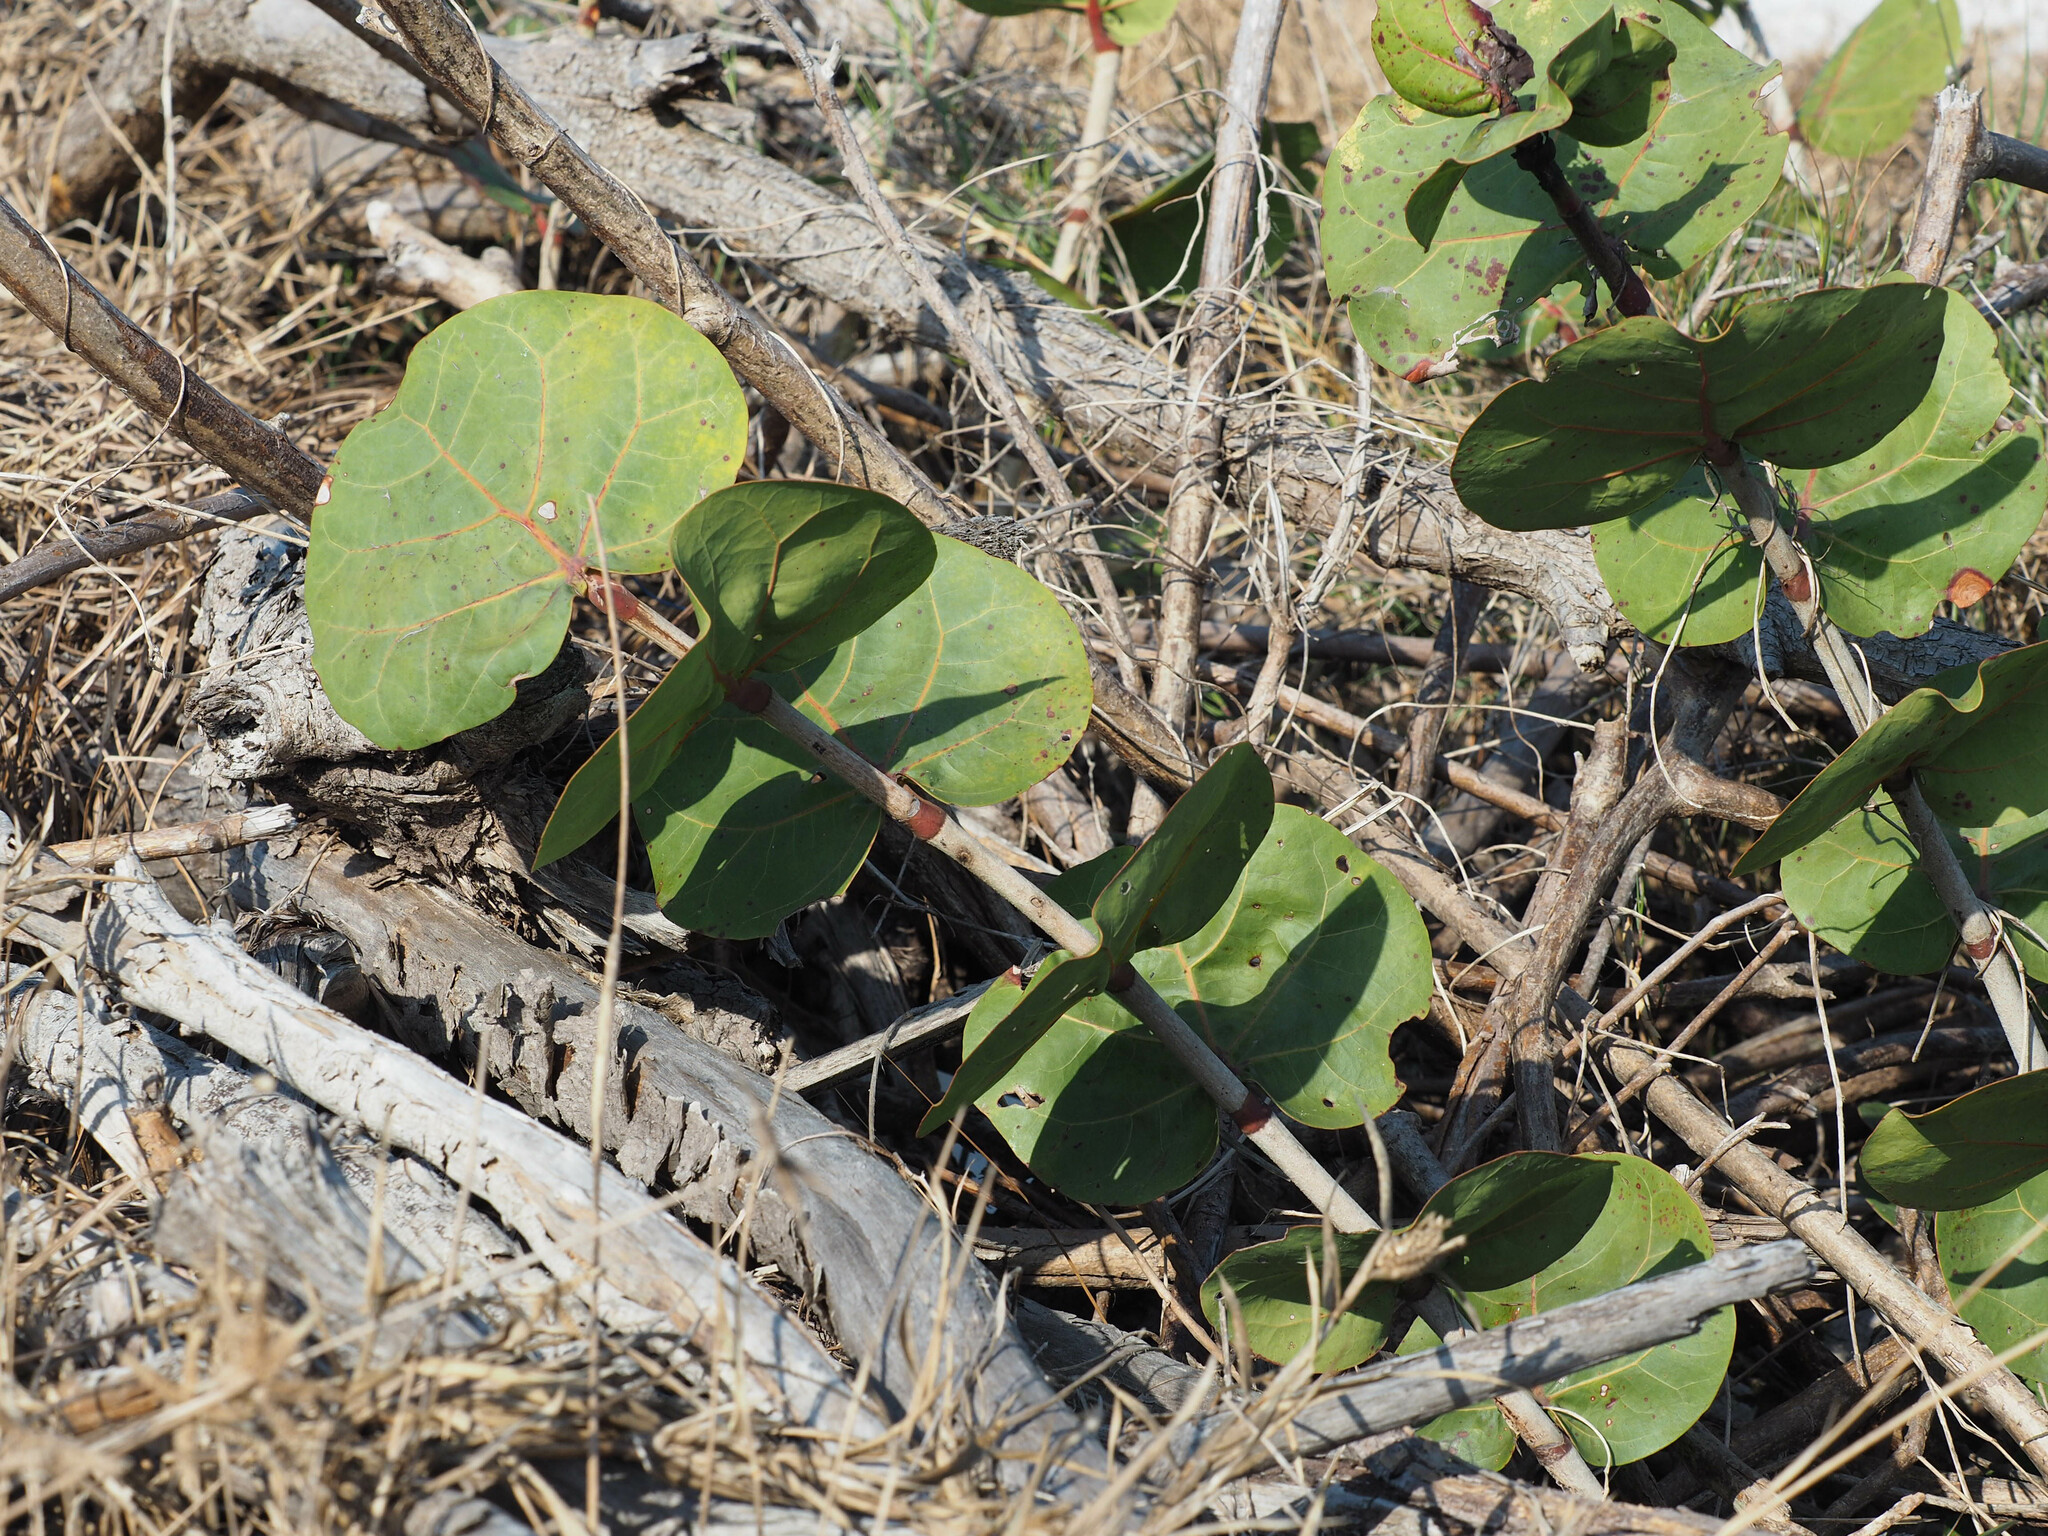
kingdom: Plantae
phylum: Tracheophyta
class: Magnoliopsida
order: Caryophyllales
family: Polygonaceae
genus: Coccoloba
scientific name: Coccoloba uvifera
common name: Seagrape
